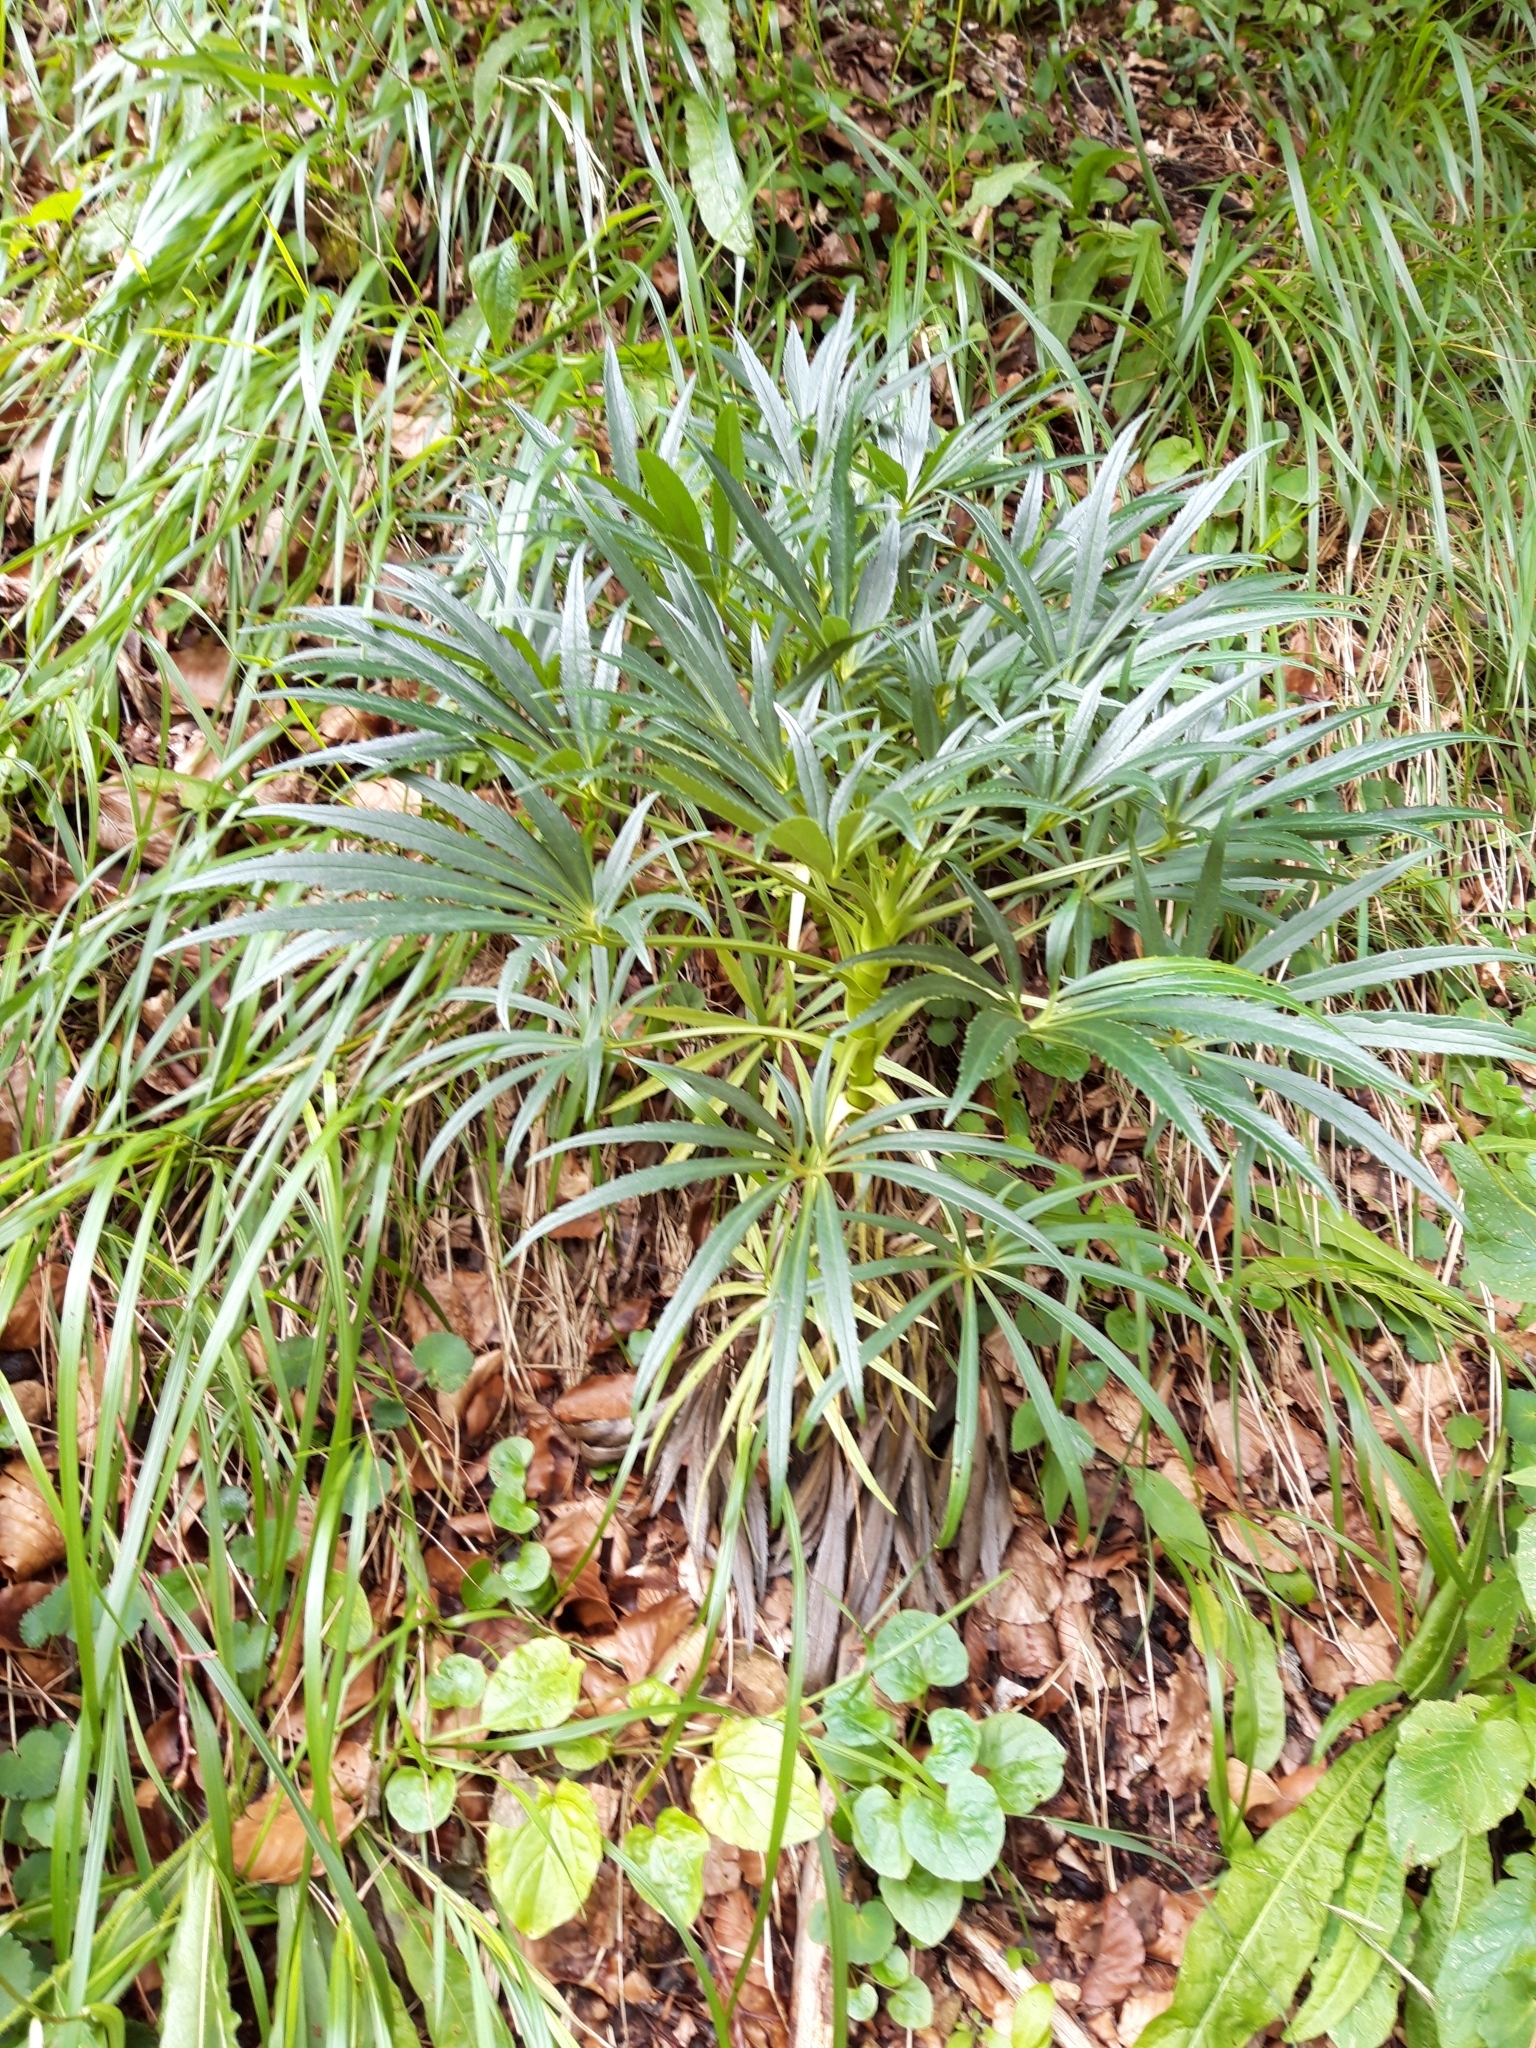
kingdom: Plantae
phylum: Tracheophyta
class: Magnoliopsida
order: Ranunculales
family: Ranunculaceae
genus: Helleborus
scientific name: Helleborus foetidus
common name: Stinking hellebore
